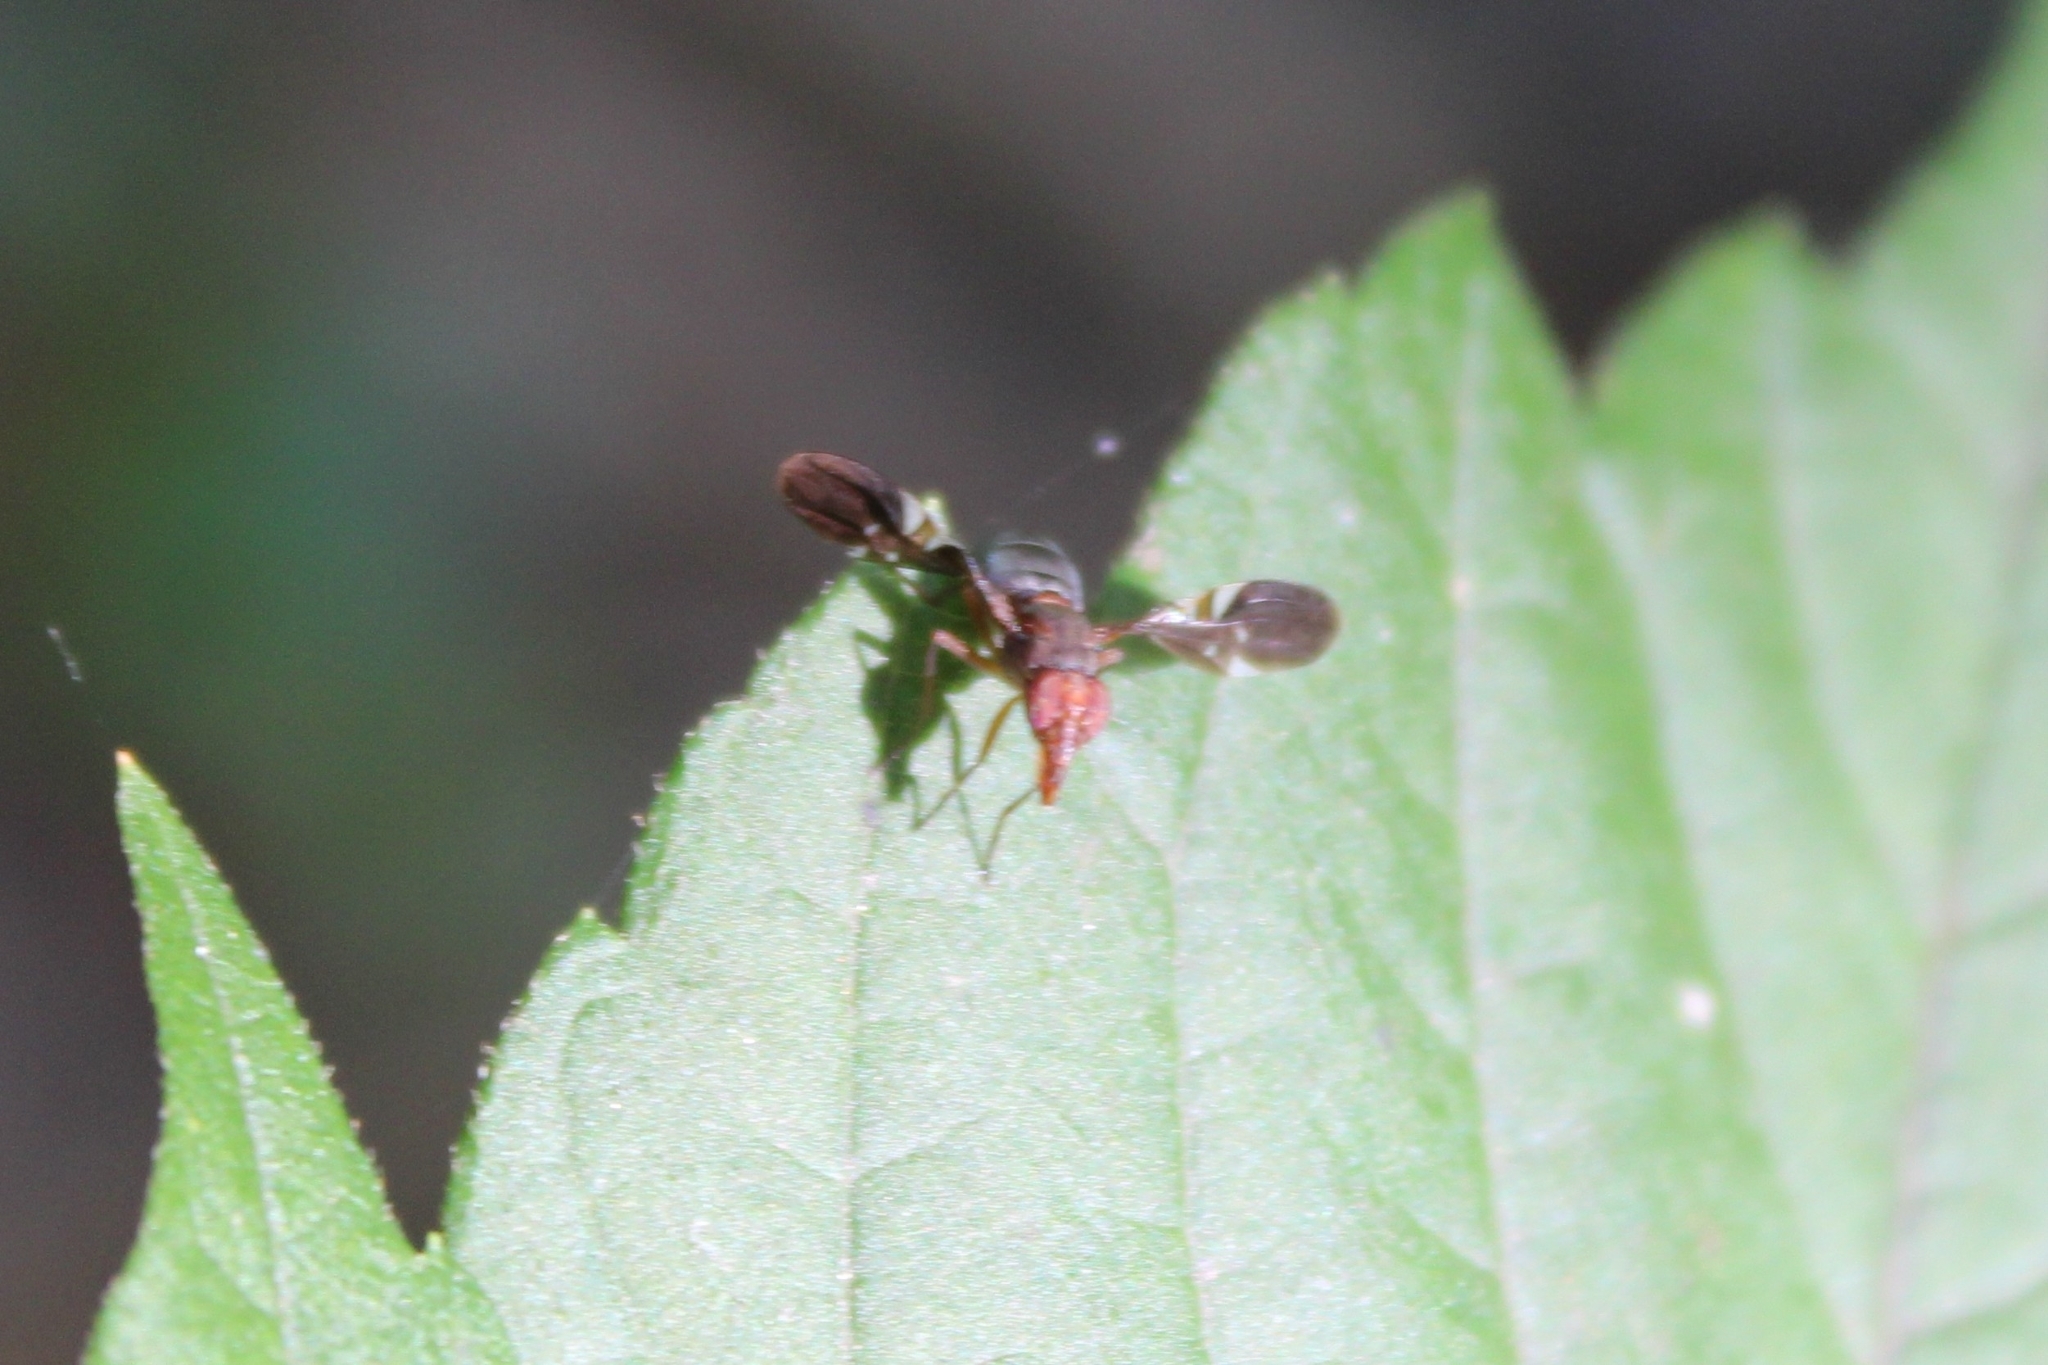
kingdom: Animalia
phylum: Arthropoda
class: Insecta
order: Diptera
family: Ulidiidae
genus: Delphinia
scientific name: Delphinia picta
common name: Common picture-winged fly
